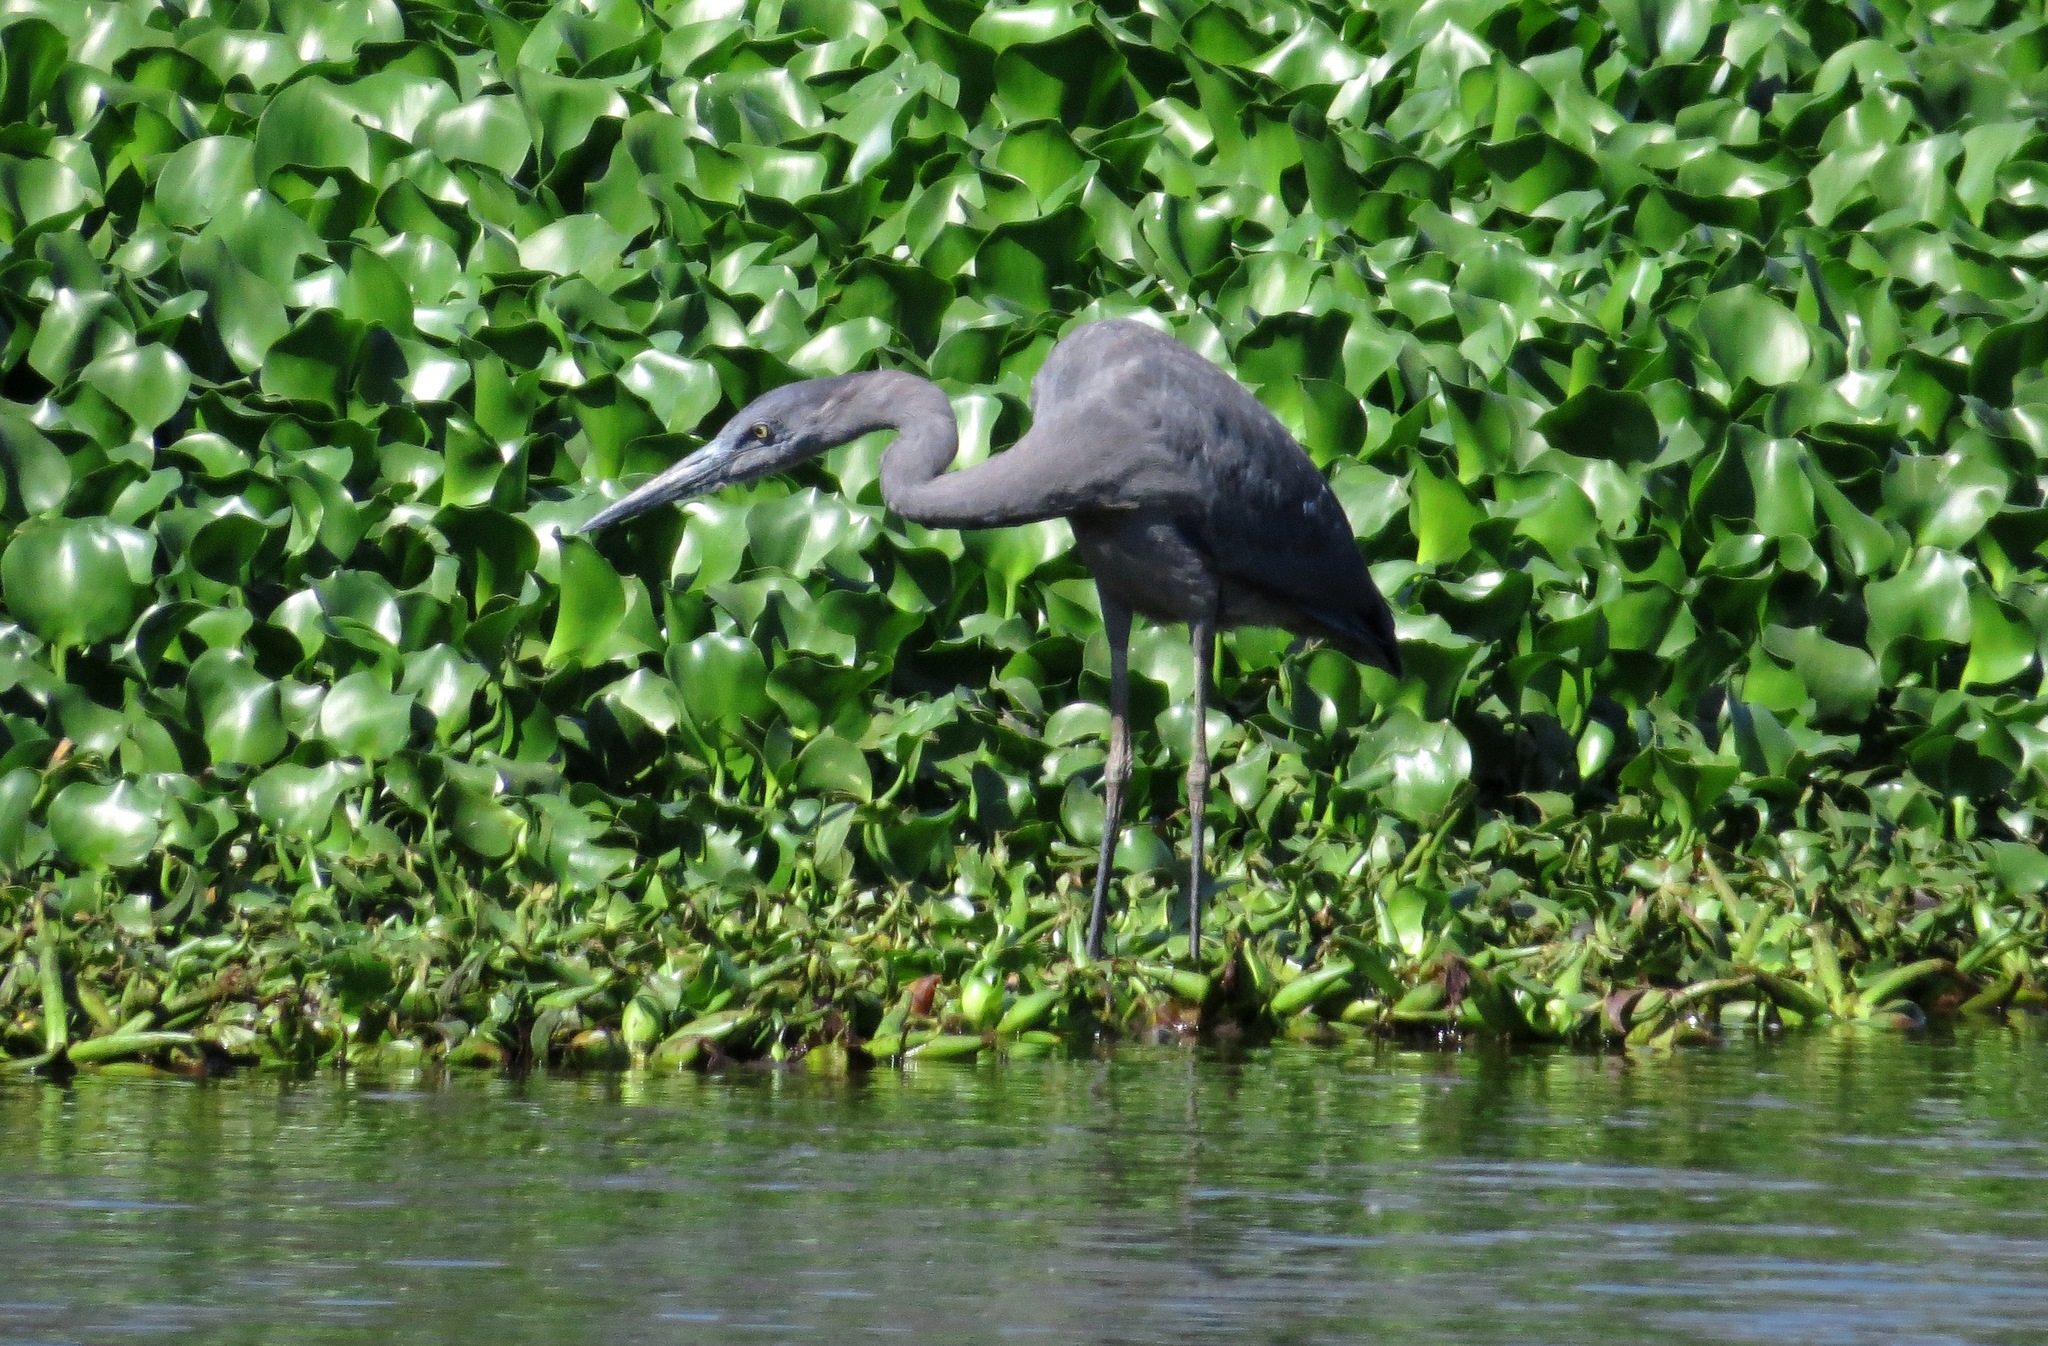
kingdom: Animalia
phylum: Chordata
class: Aves
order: Pelecaniformes
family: Ardeidae
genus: Ardea
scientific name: Ardea humbloti
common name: Humblot's heron
